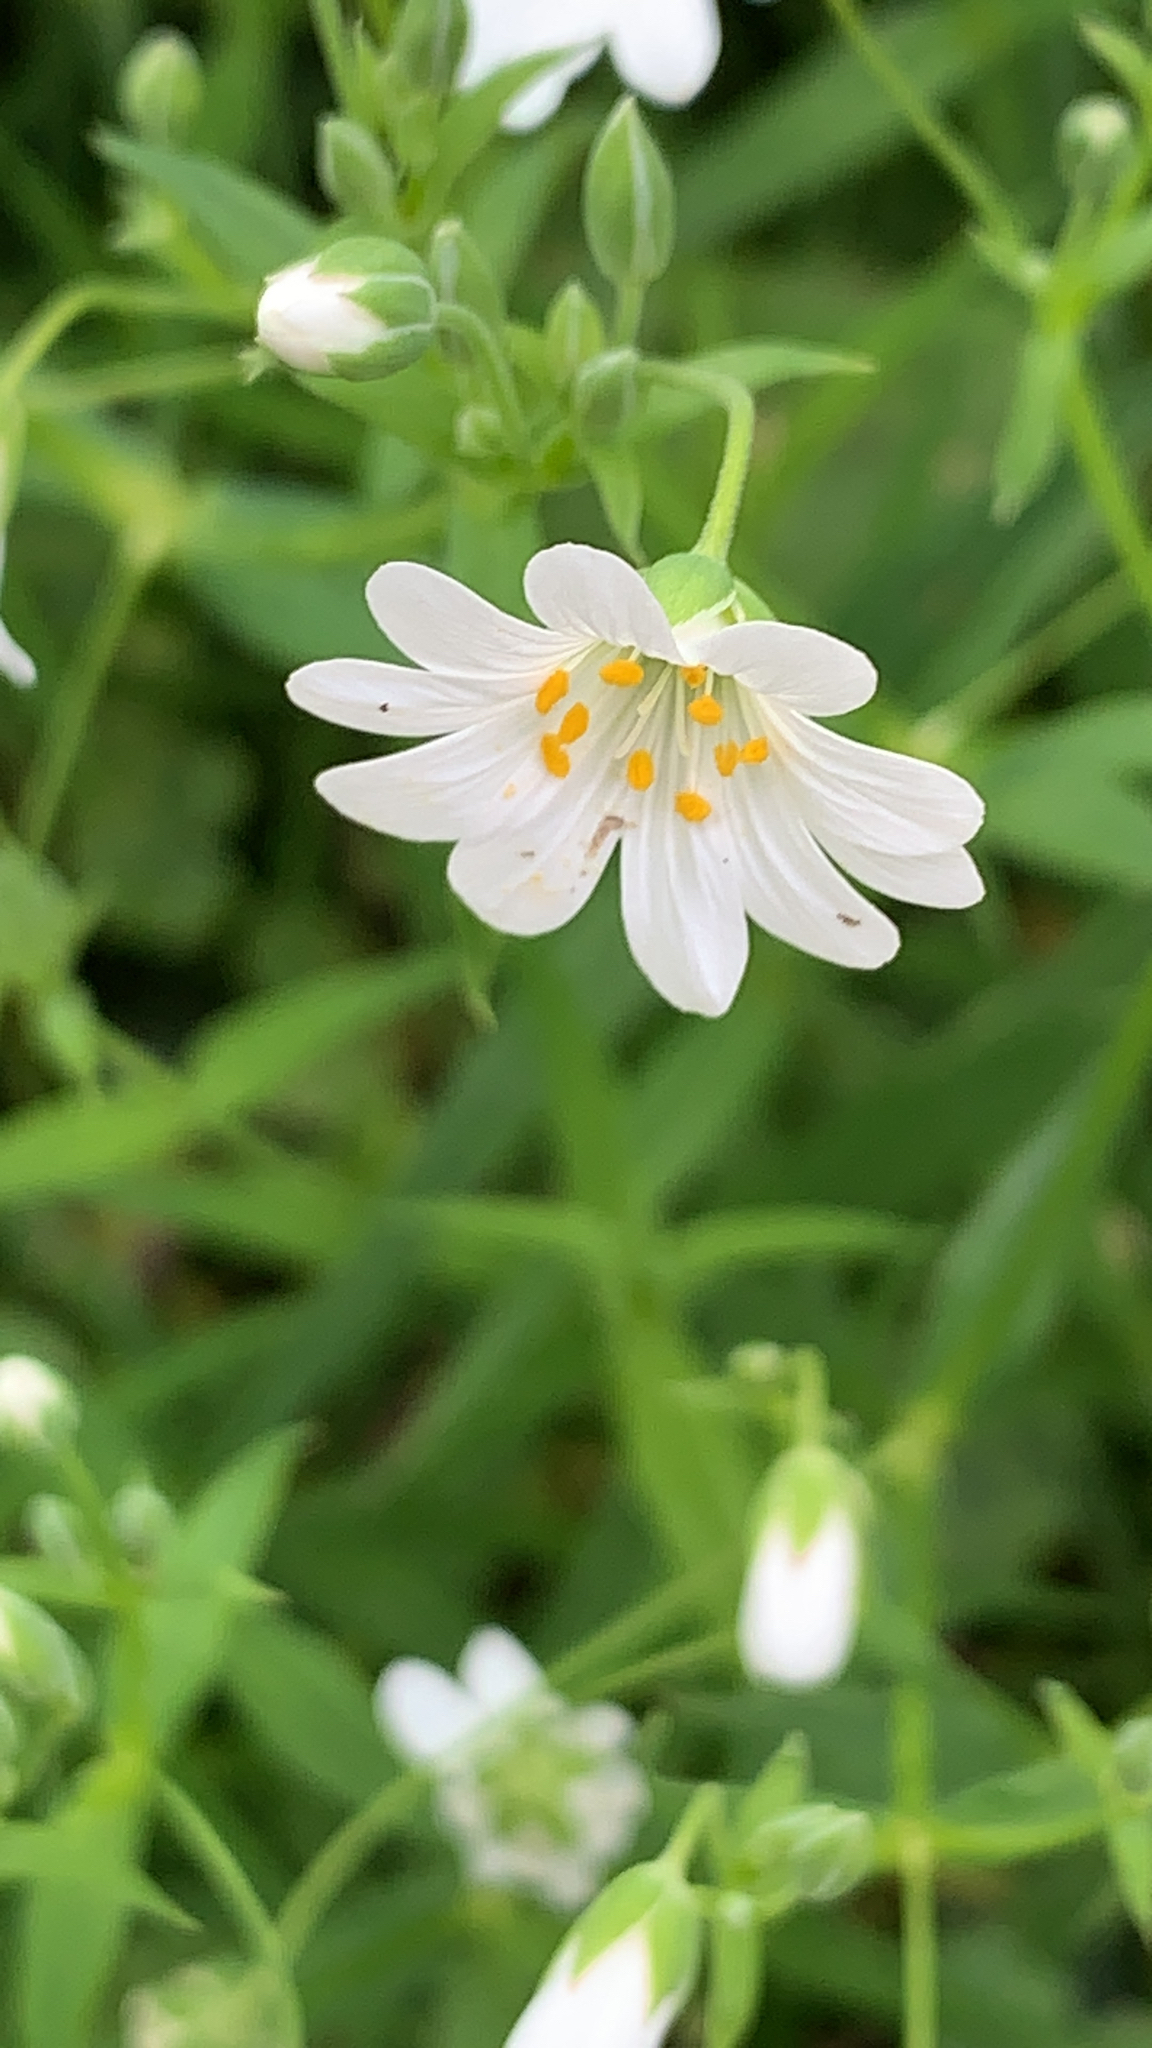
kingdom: Plantae
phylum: Tracheophyta
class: Magnoliopsida
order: Caryophyllales
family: Caryophyllaceae
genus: Rabelera
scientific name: Rabelera holostea
